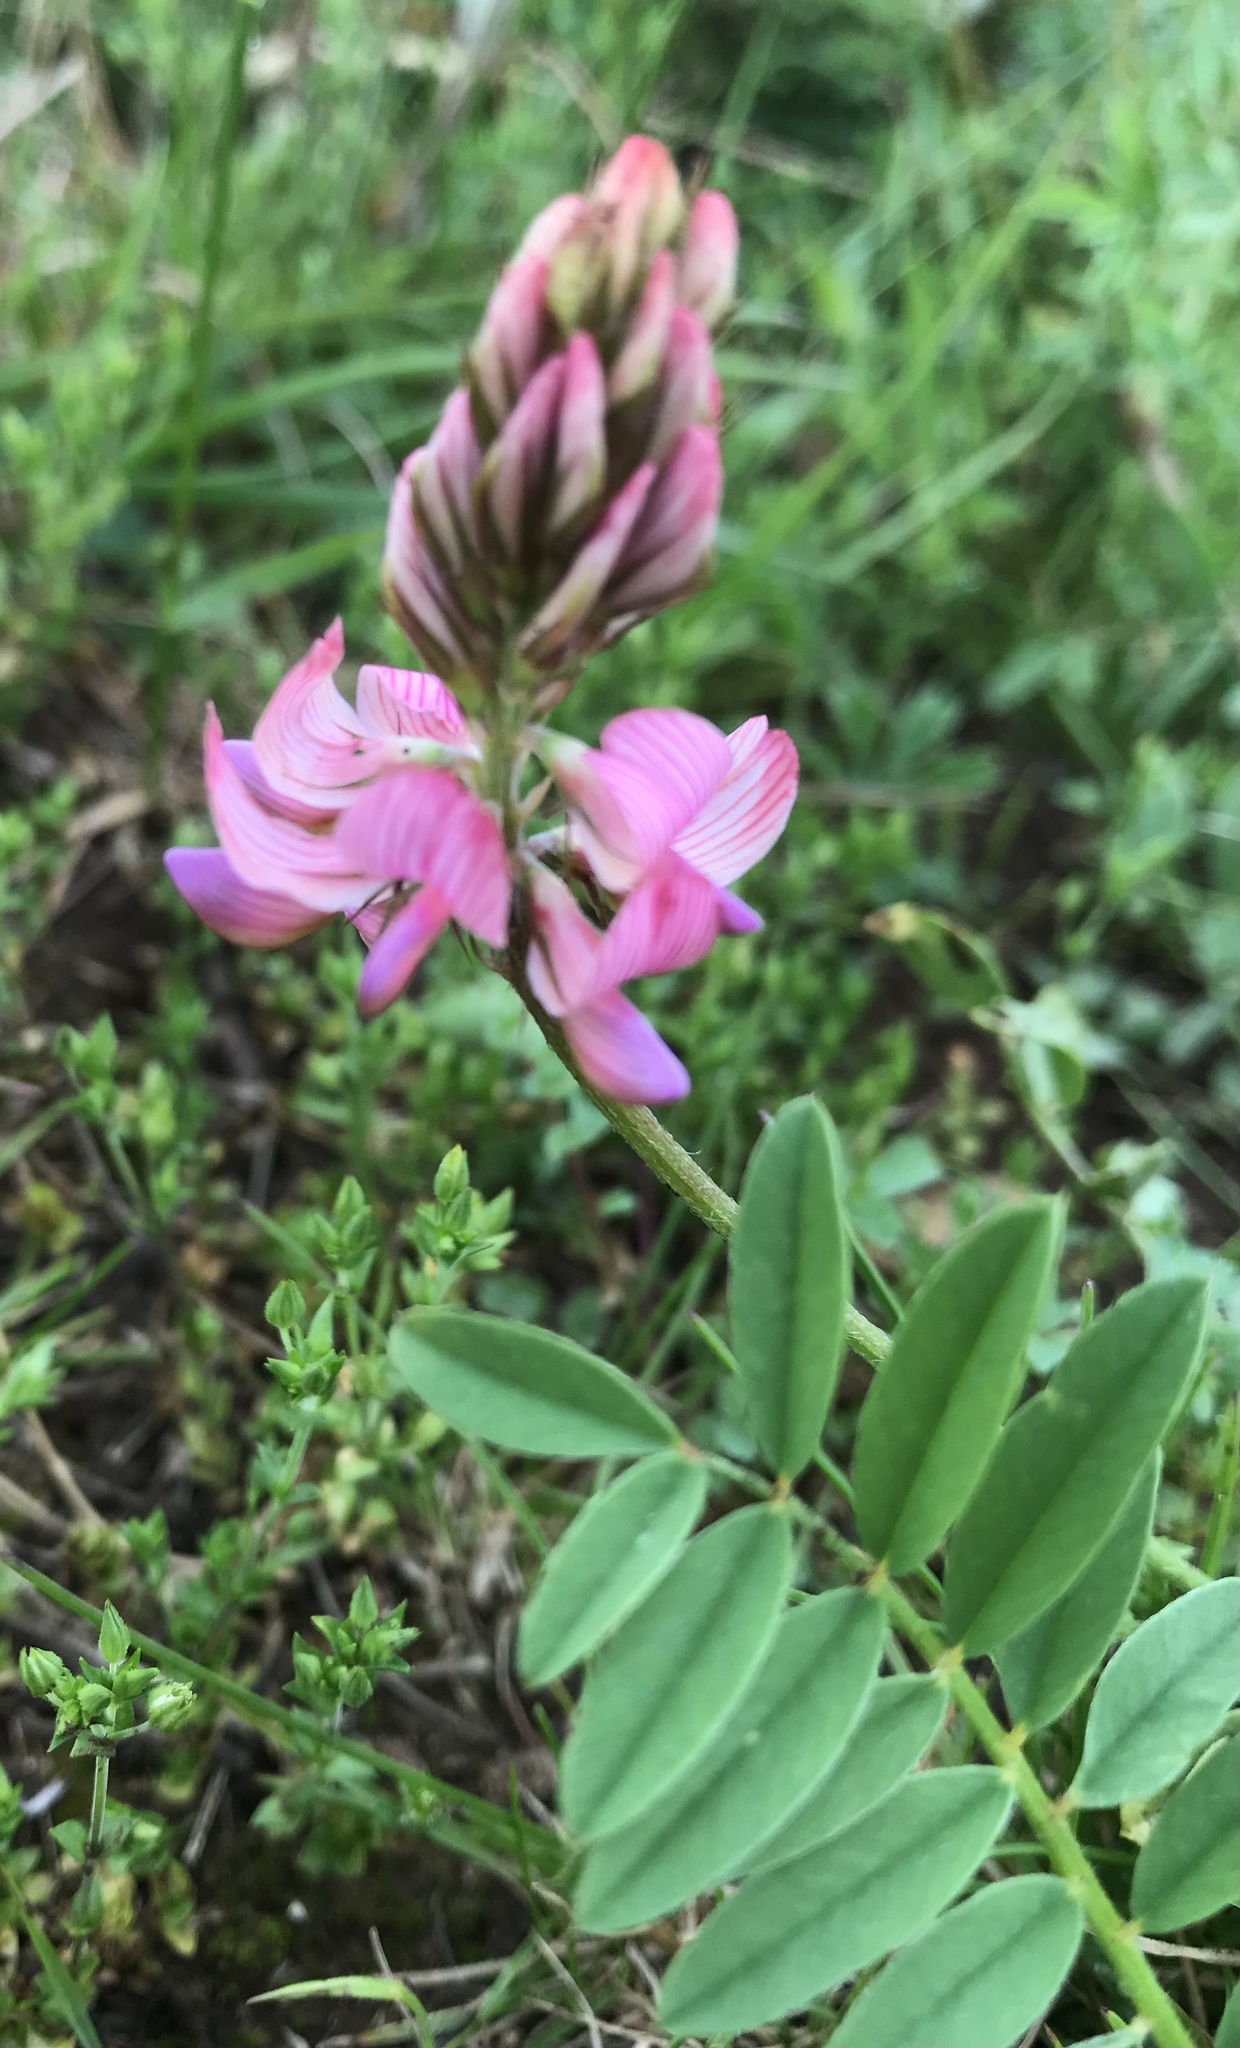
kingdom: Plantae
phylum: Tracheophyta
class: Magnoliopsida
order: Fabales
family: Fabaceae
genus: Onobrychis
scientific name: Onobrychis viciifolia
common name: Sainfoin
